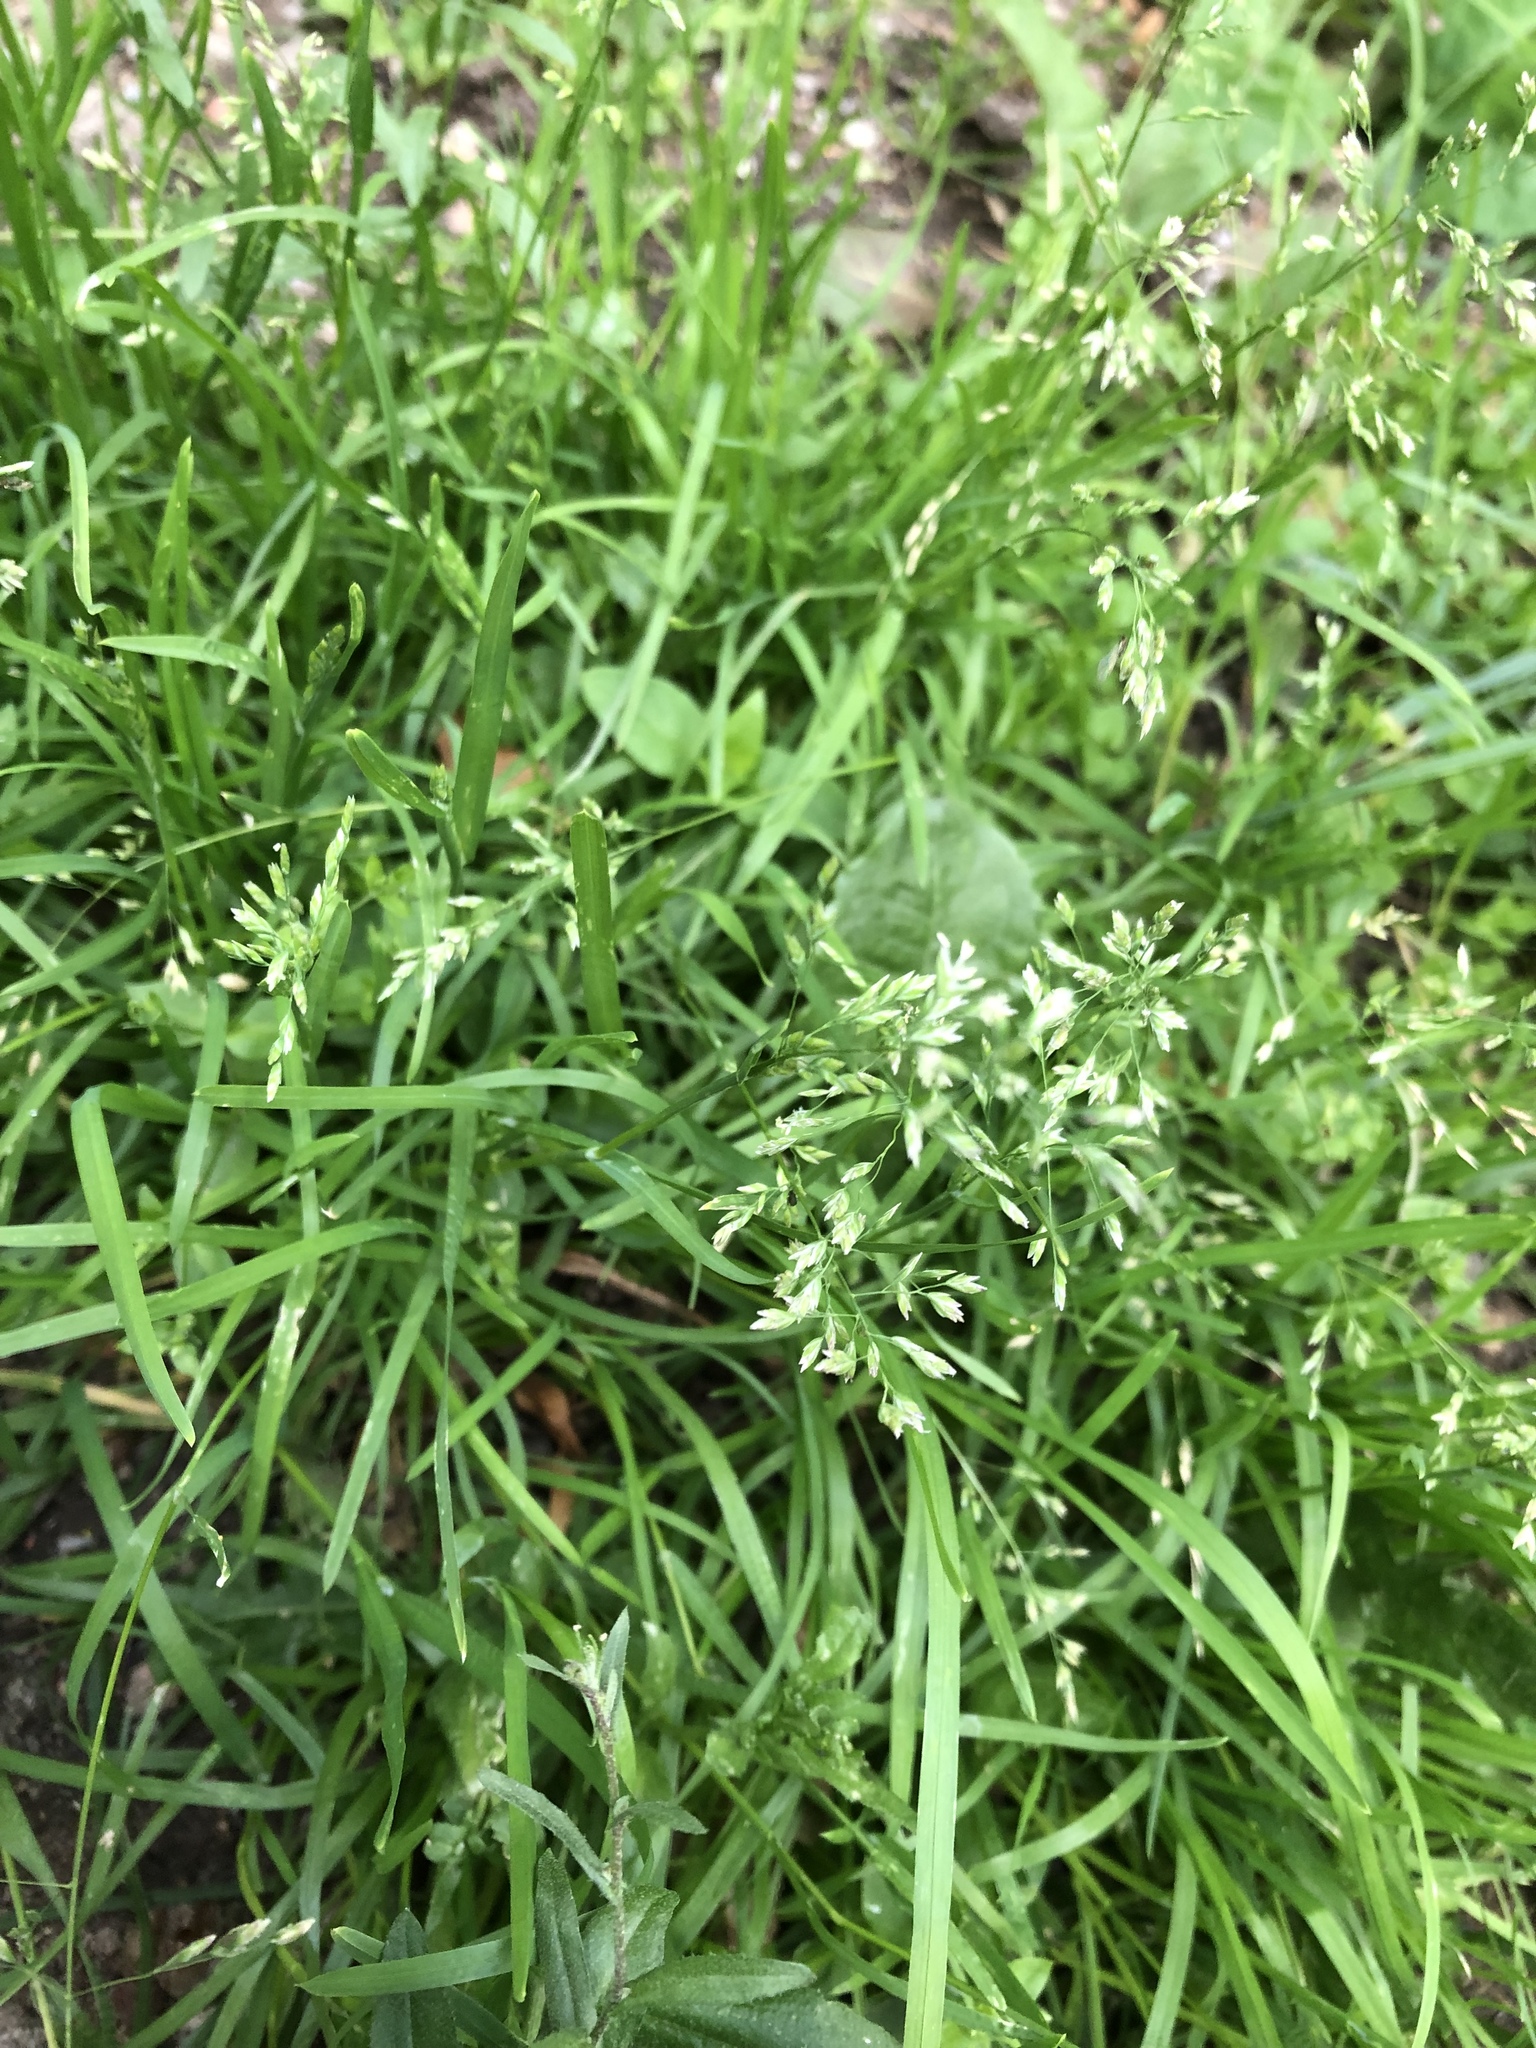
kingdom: Plantae
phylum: Tracheophyta
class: Liliopsida
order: Poales
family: Poaceae
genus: Poa
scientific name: Poa annua
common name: Annual bluegrass
